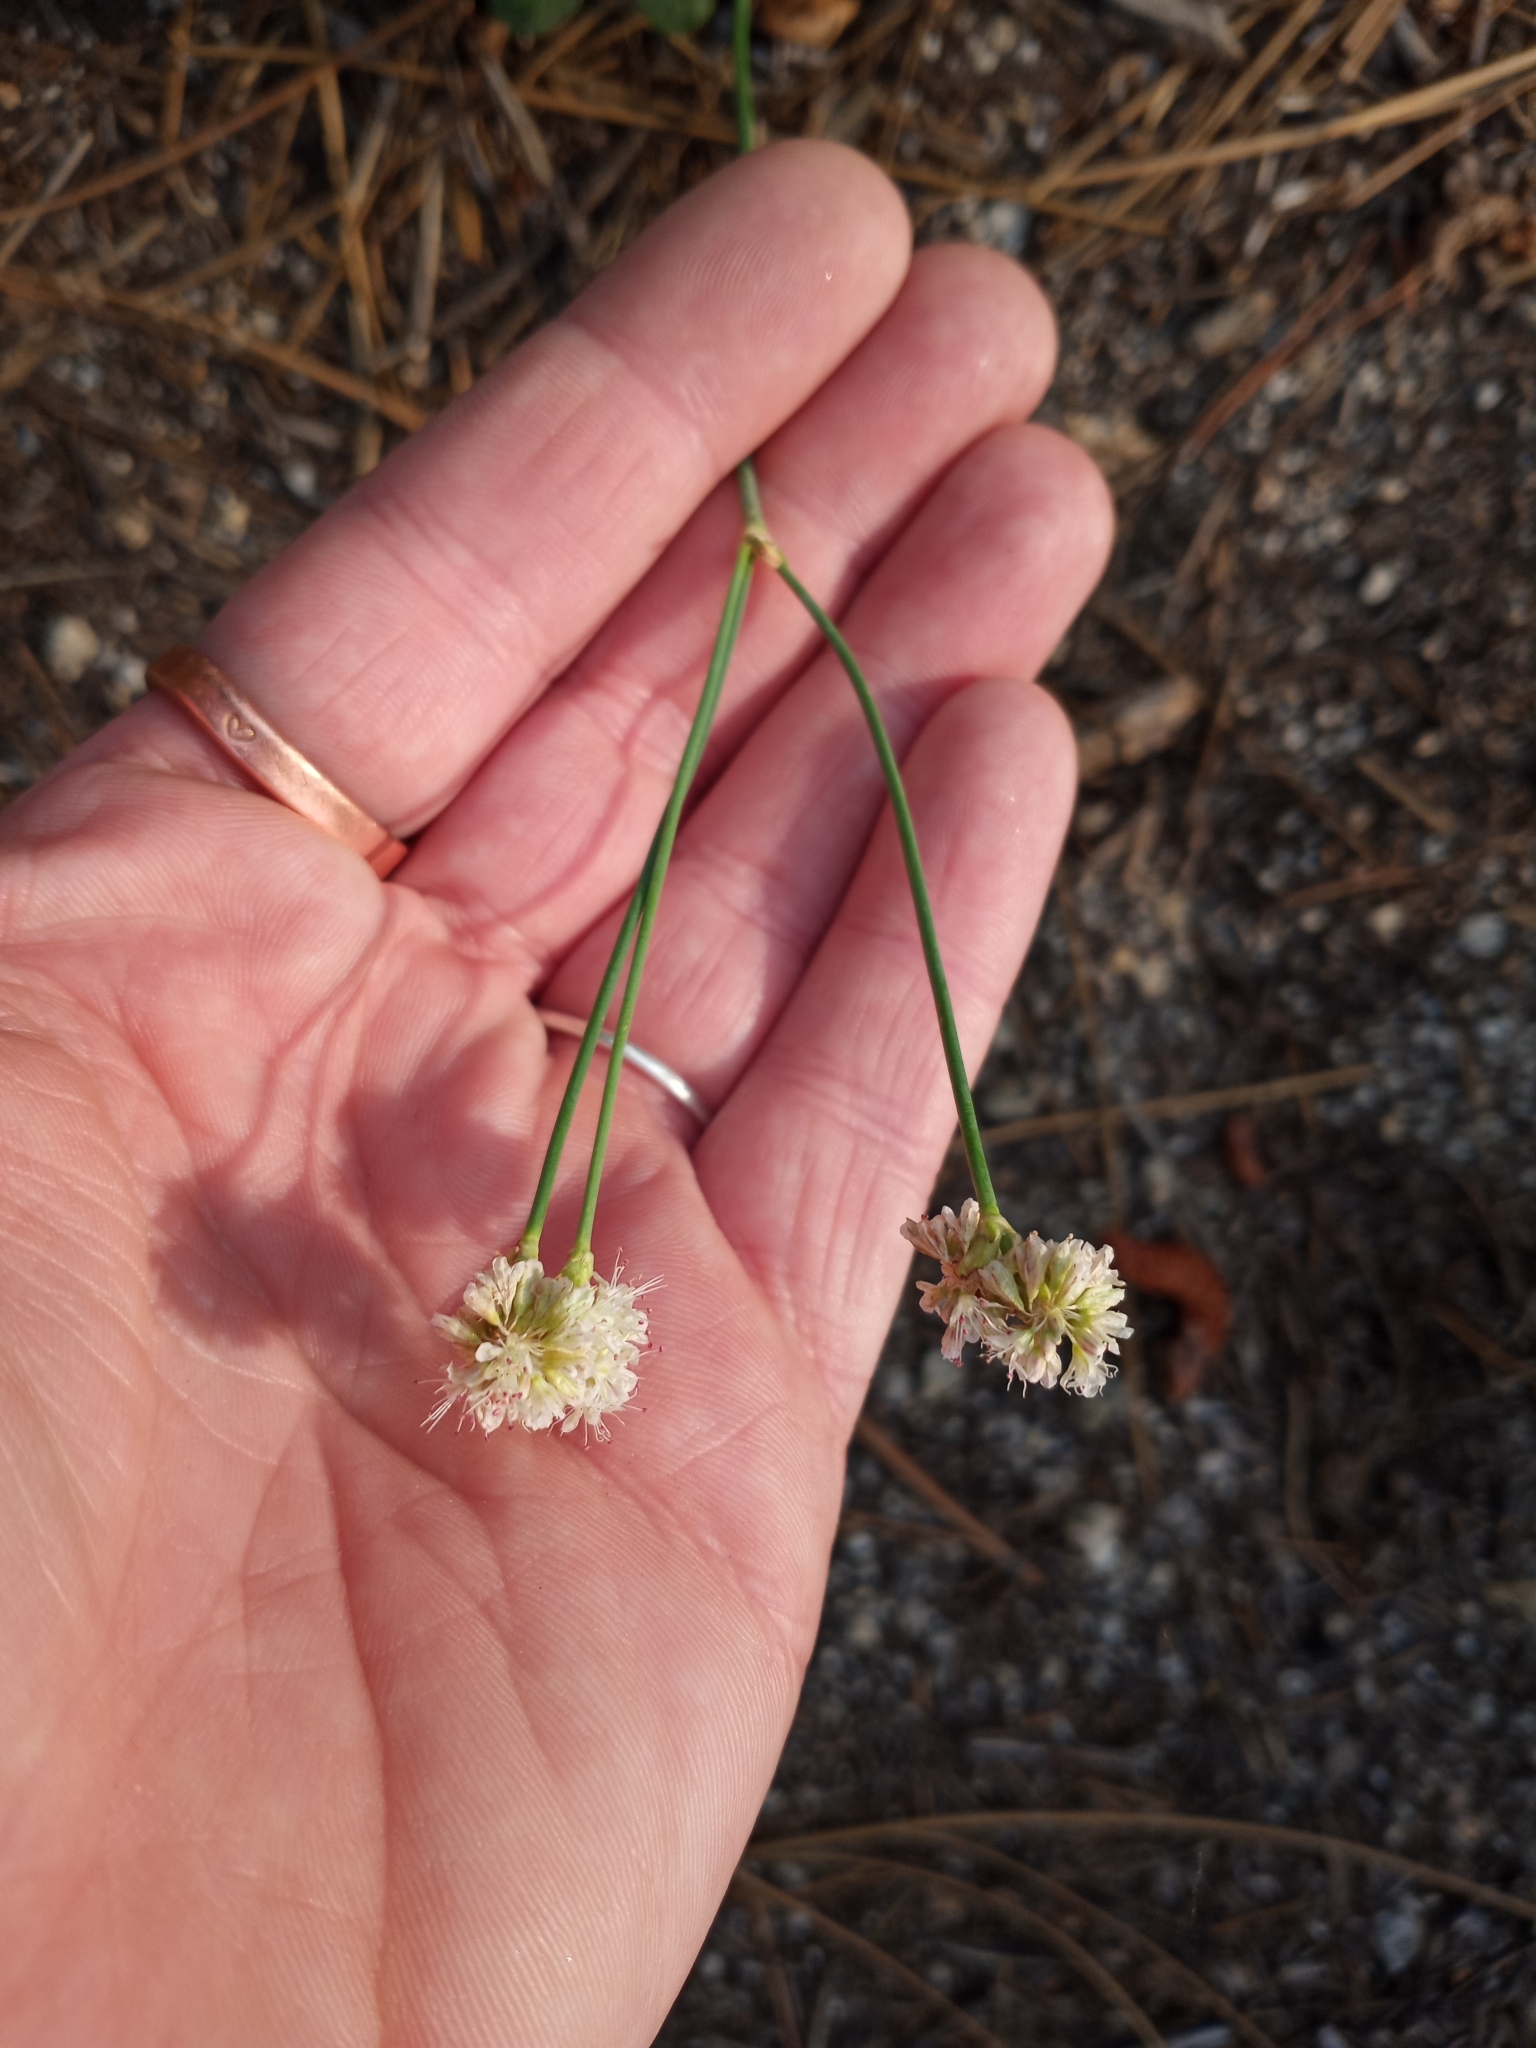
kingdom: Plantae
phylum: Tracheophyta
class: Magnoliopsida
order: Caryophyllales
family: Polygonaceae
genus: Eriogonum
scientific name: Eriogonum nudum
